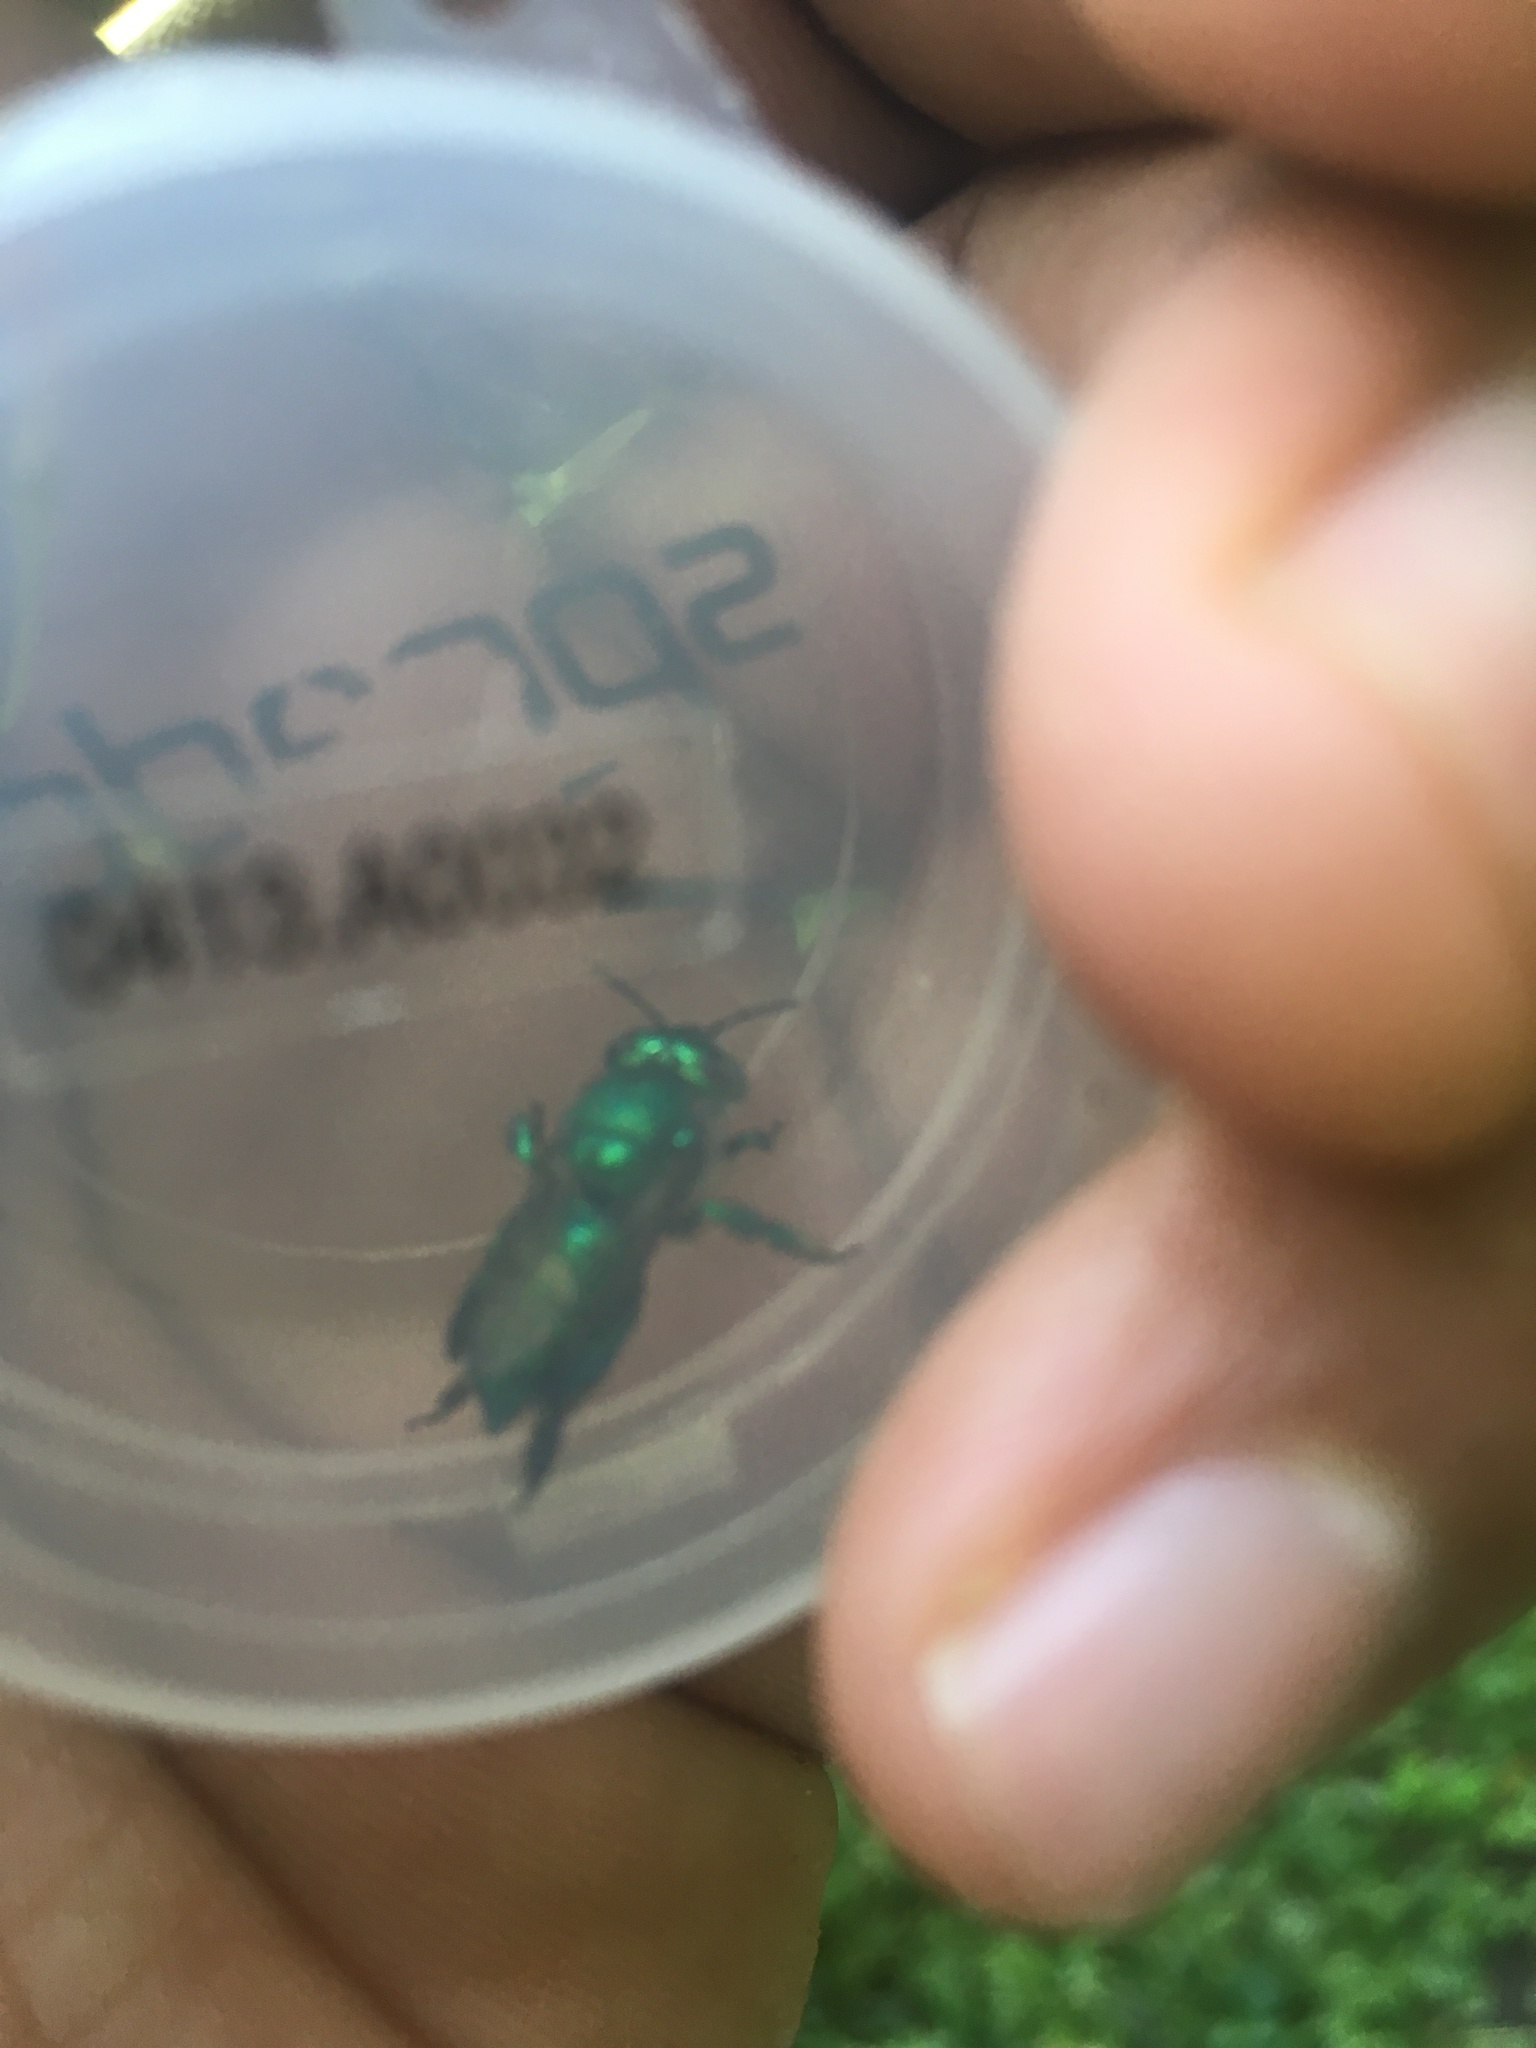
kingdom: Animalia
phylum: Arthropoda
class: Insecta
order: Hymenoptera
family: Apidae
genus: Euglossa
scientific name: Euglossa viridissima
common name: Polished warrior euglossa
